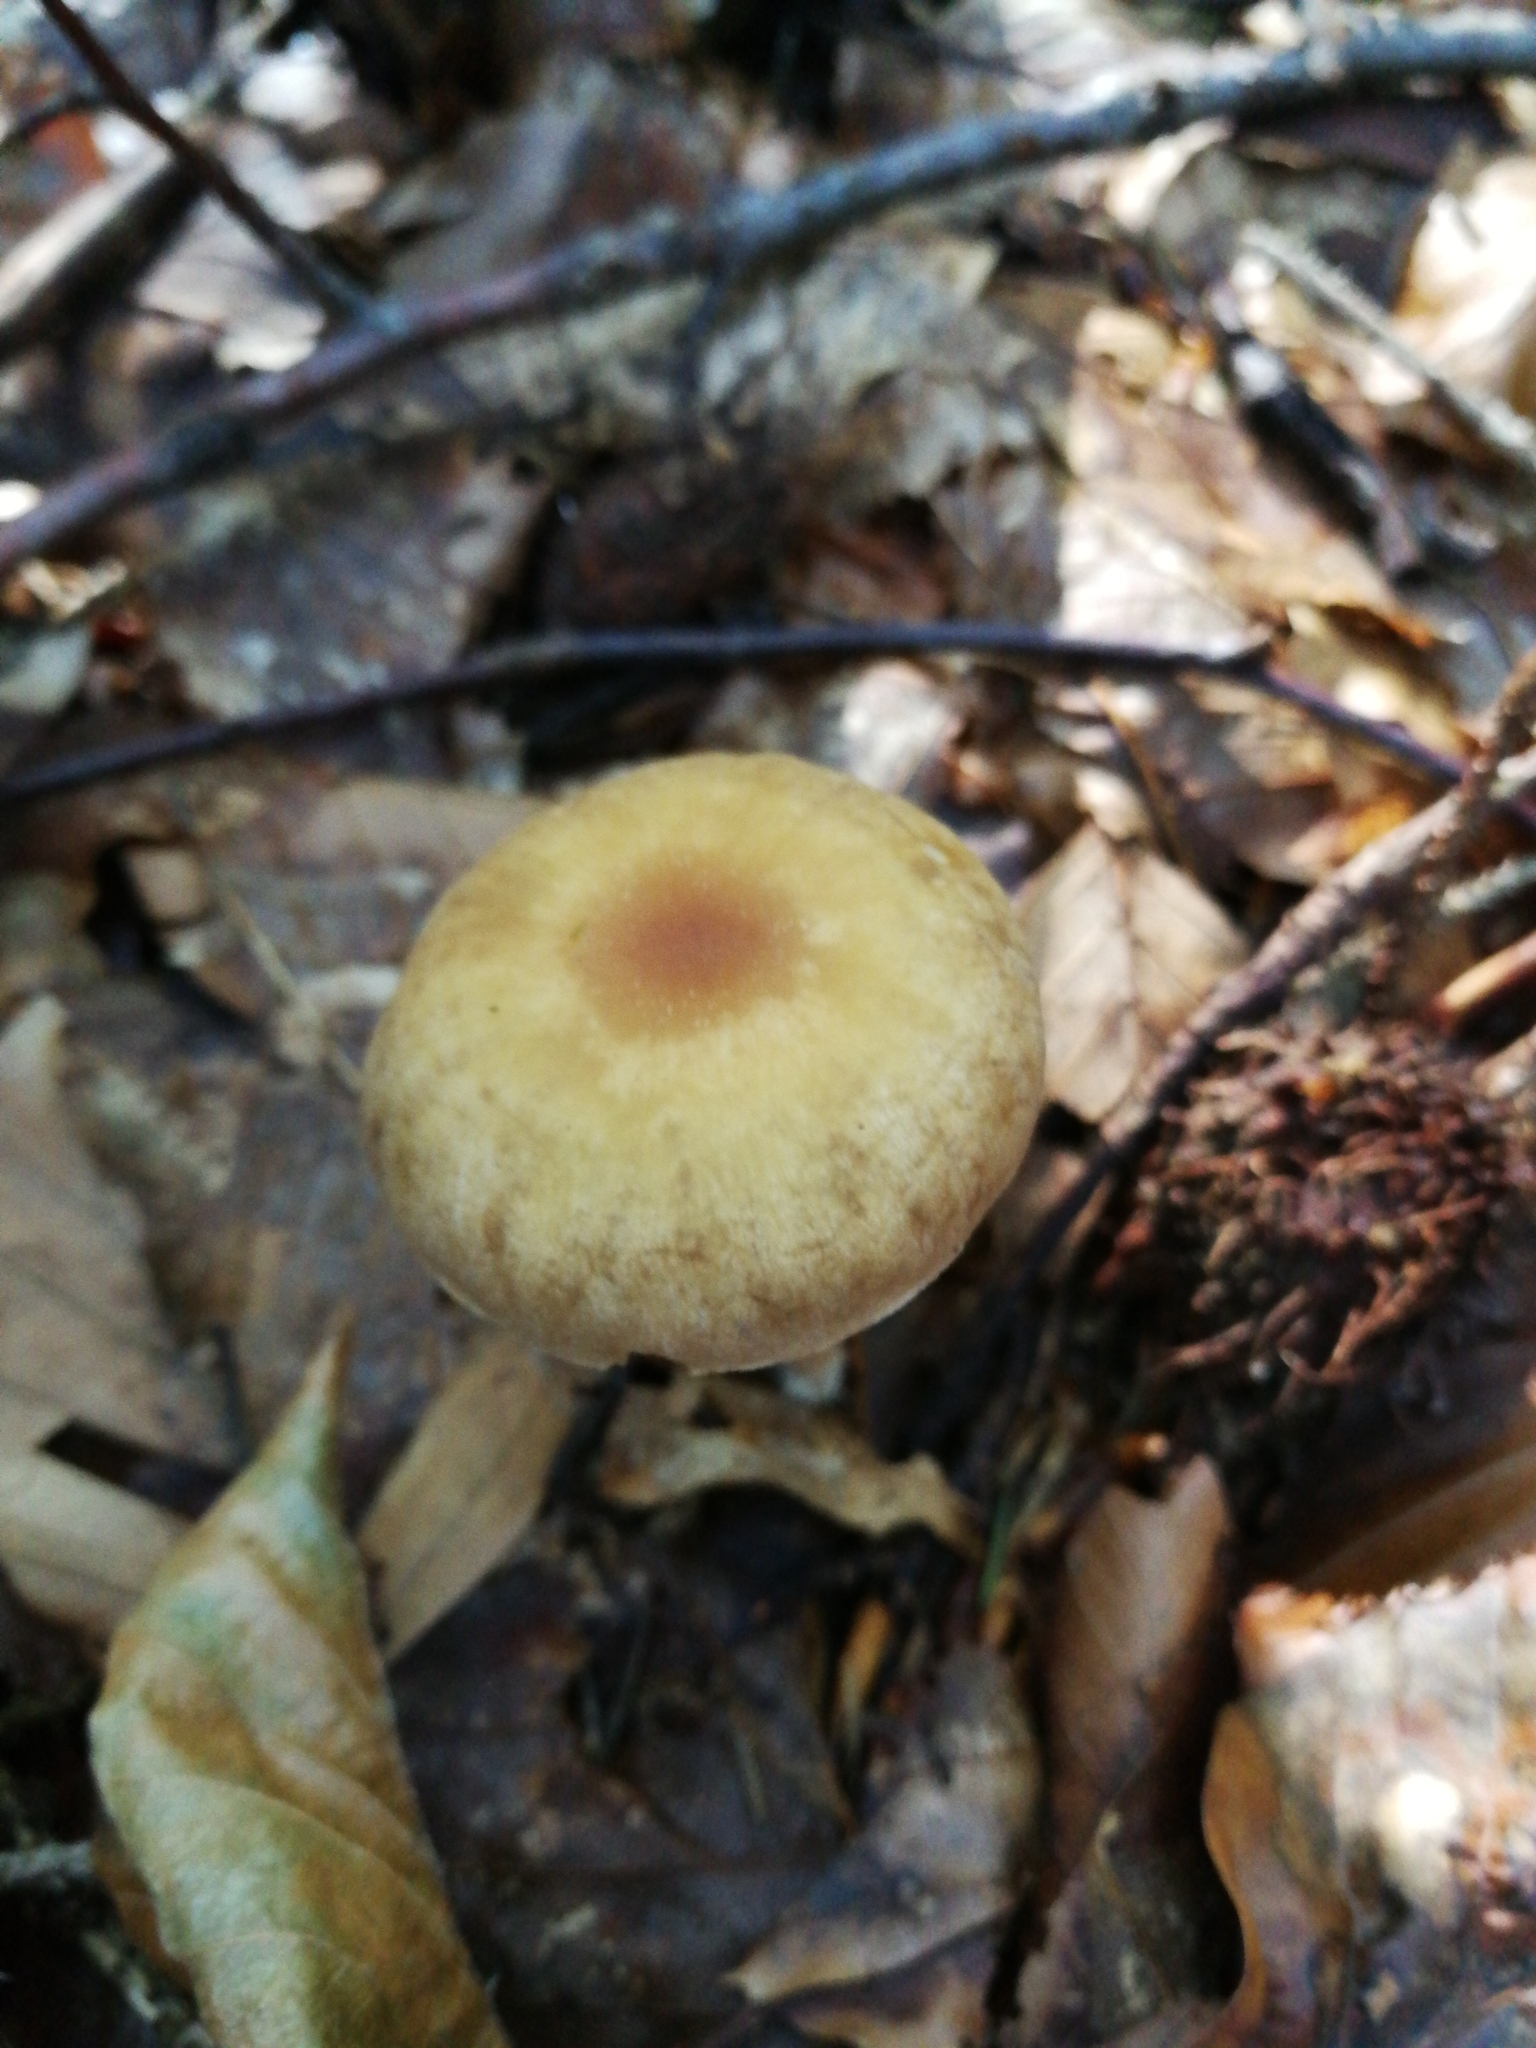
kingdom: Fungi
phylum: Basidiomycota
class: Agaricomycetes
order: Agaricales
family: Omphalotaceae
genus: Collybiopsis
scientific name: Collybiopsis peronata
